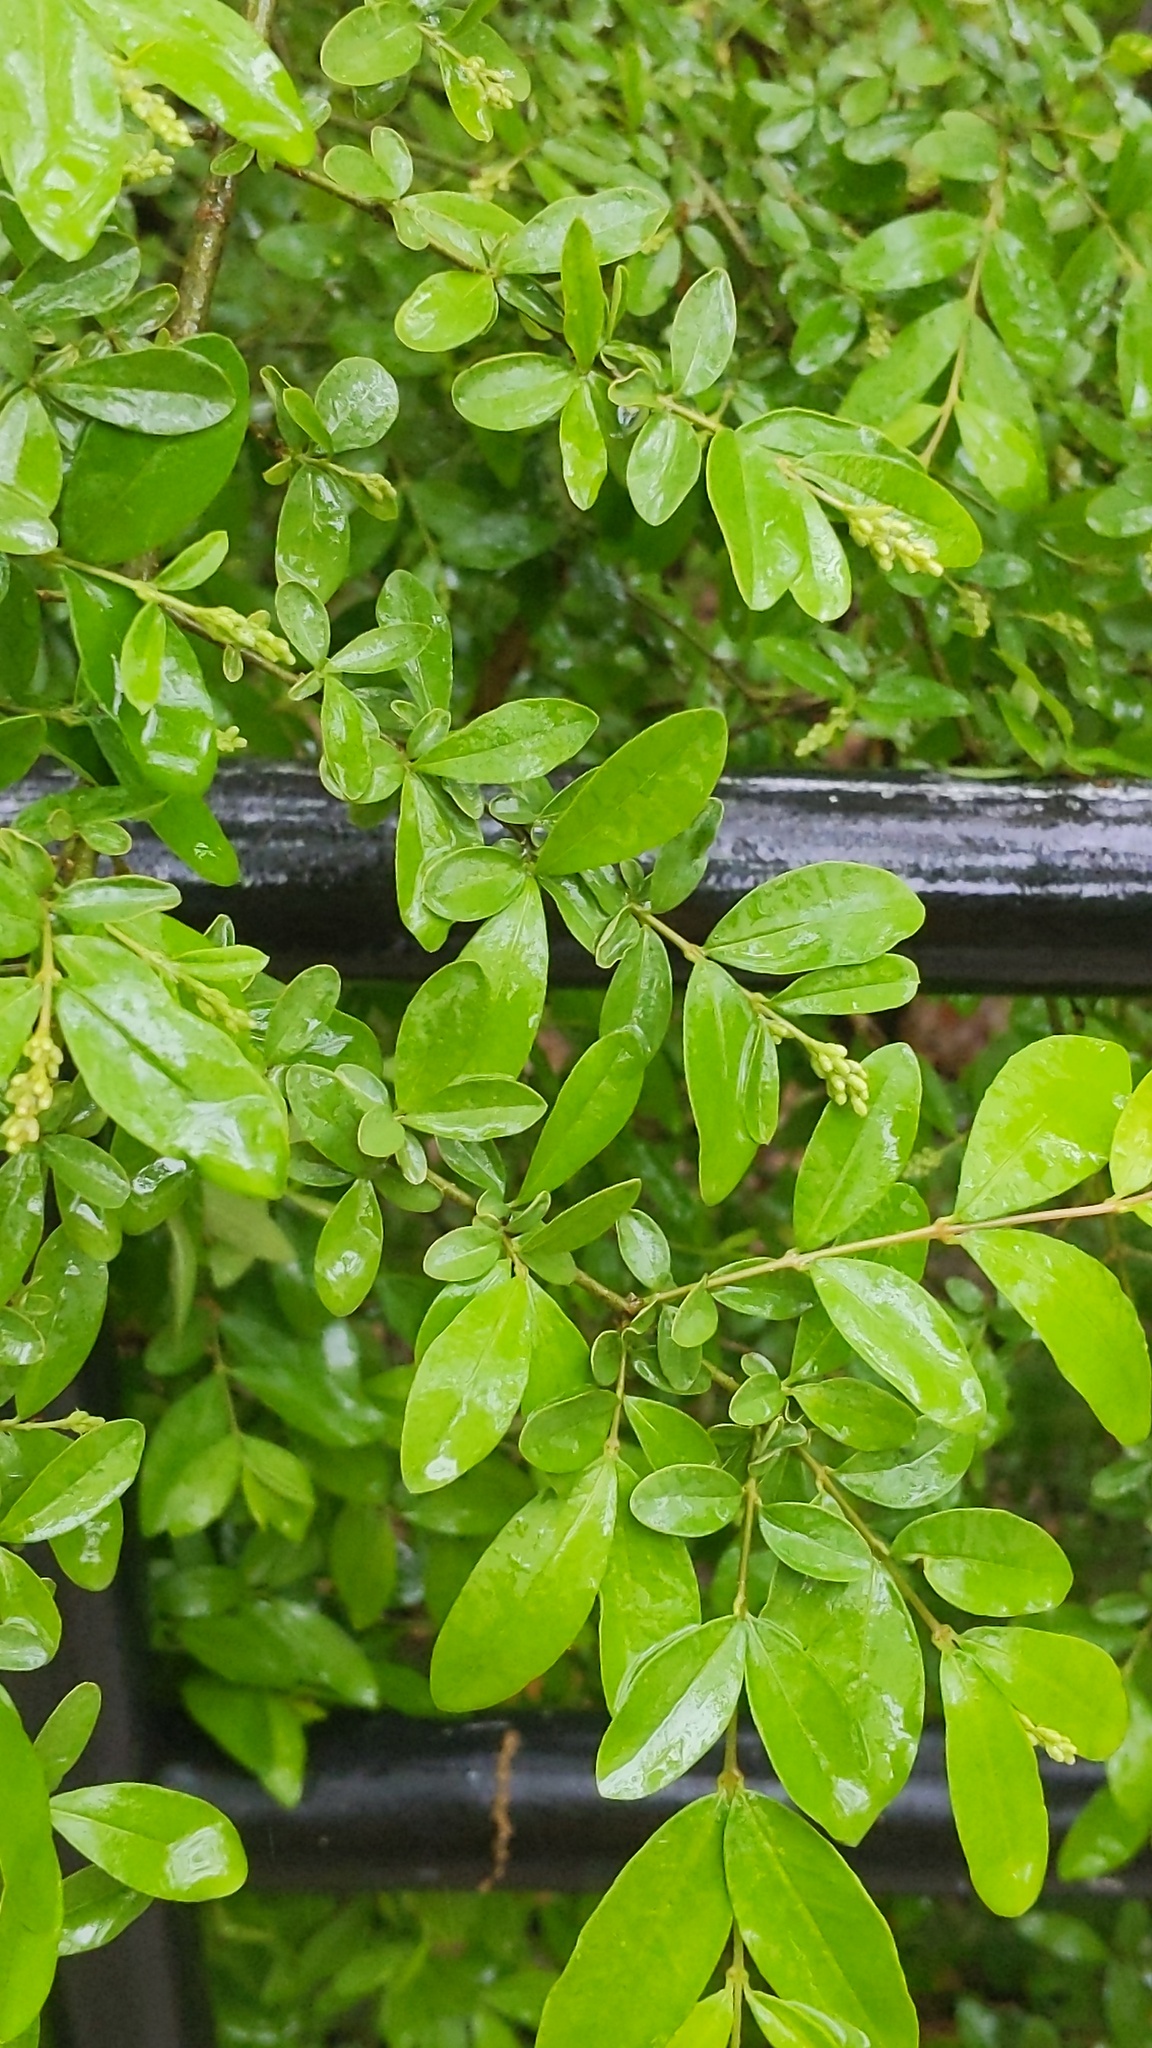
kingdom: Plantae
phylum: Tracheophyta
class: Magnoliopsida
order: Lamiales
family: Oleaceae
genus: Ligustrum
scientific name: Ligustrum obtusifolium
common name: Border privet
